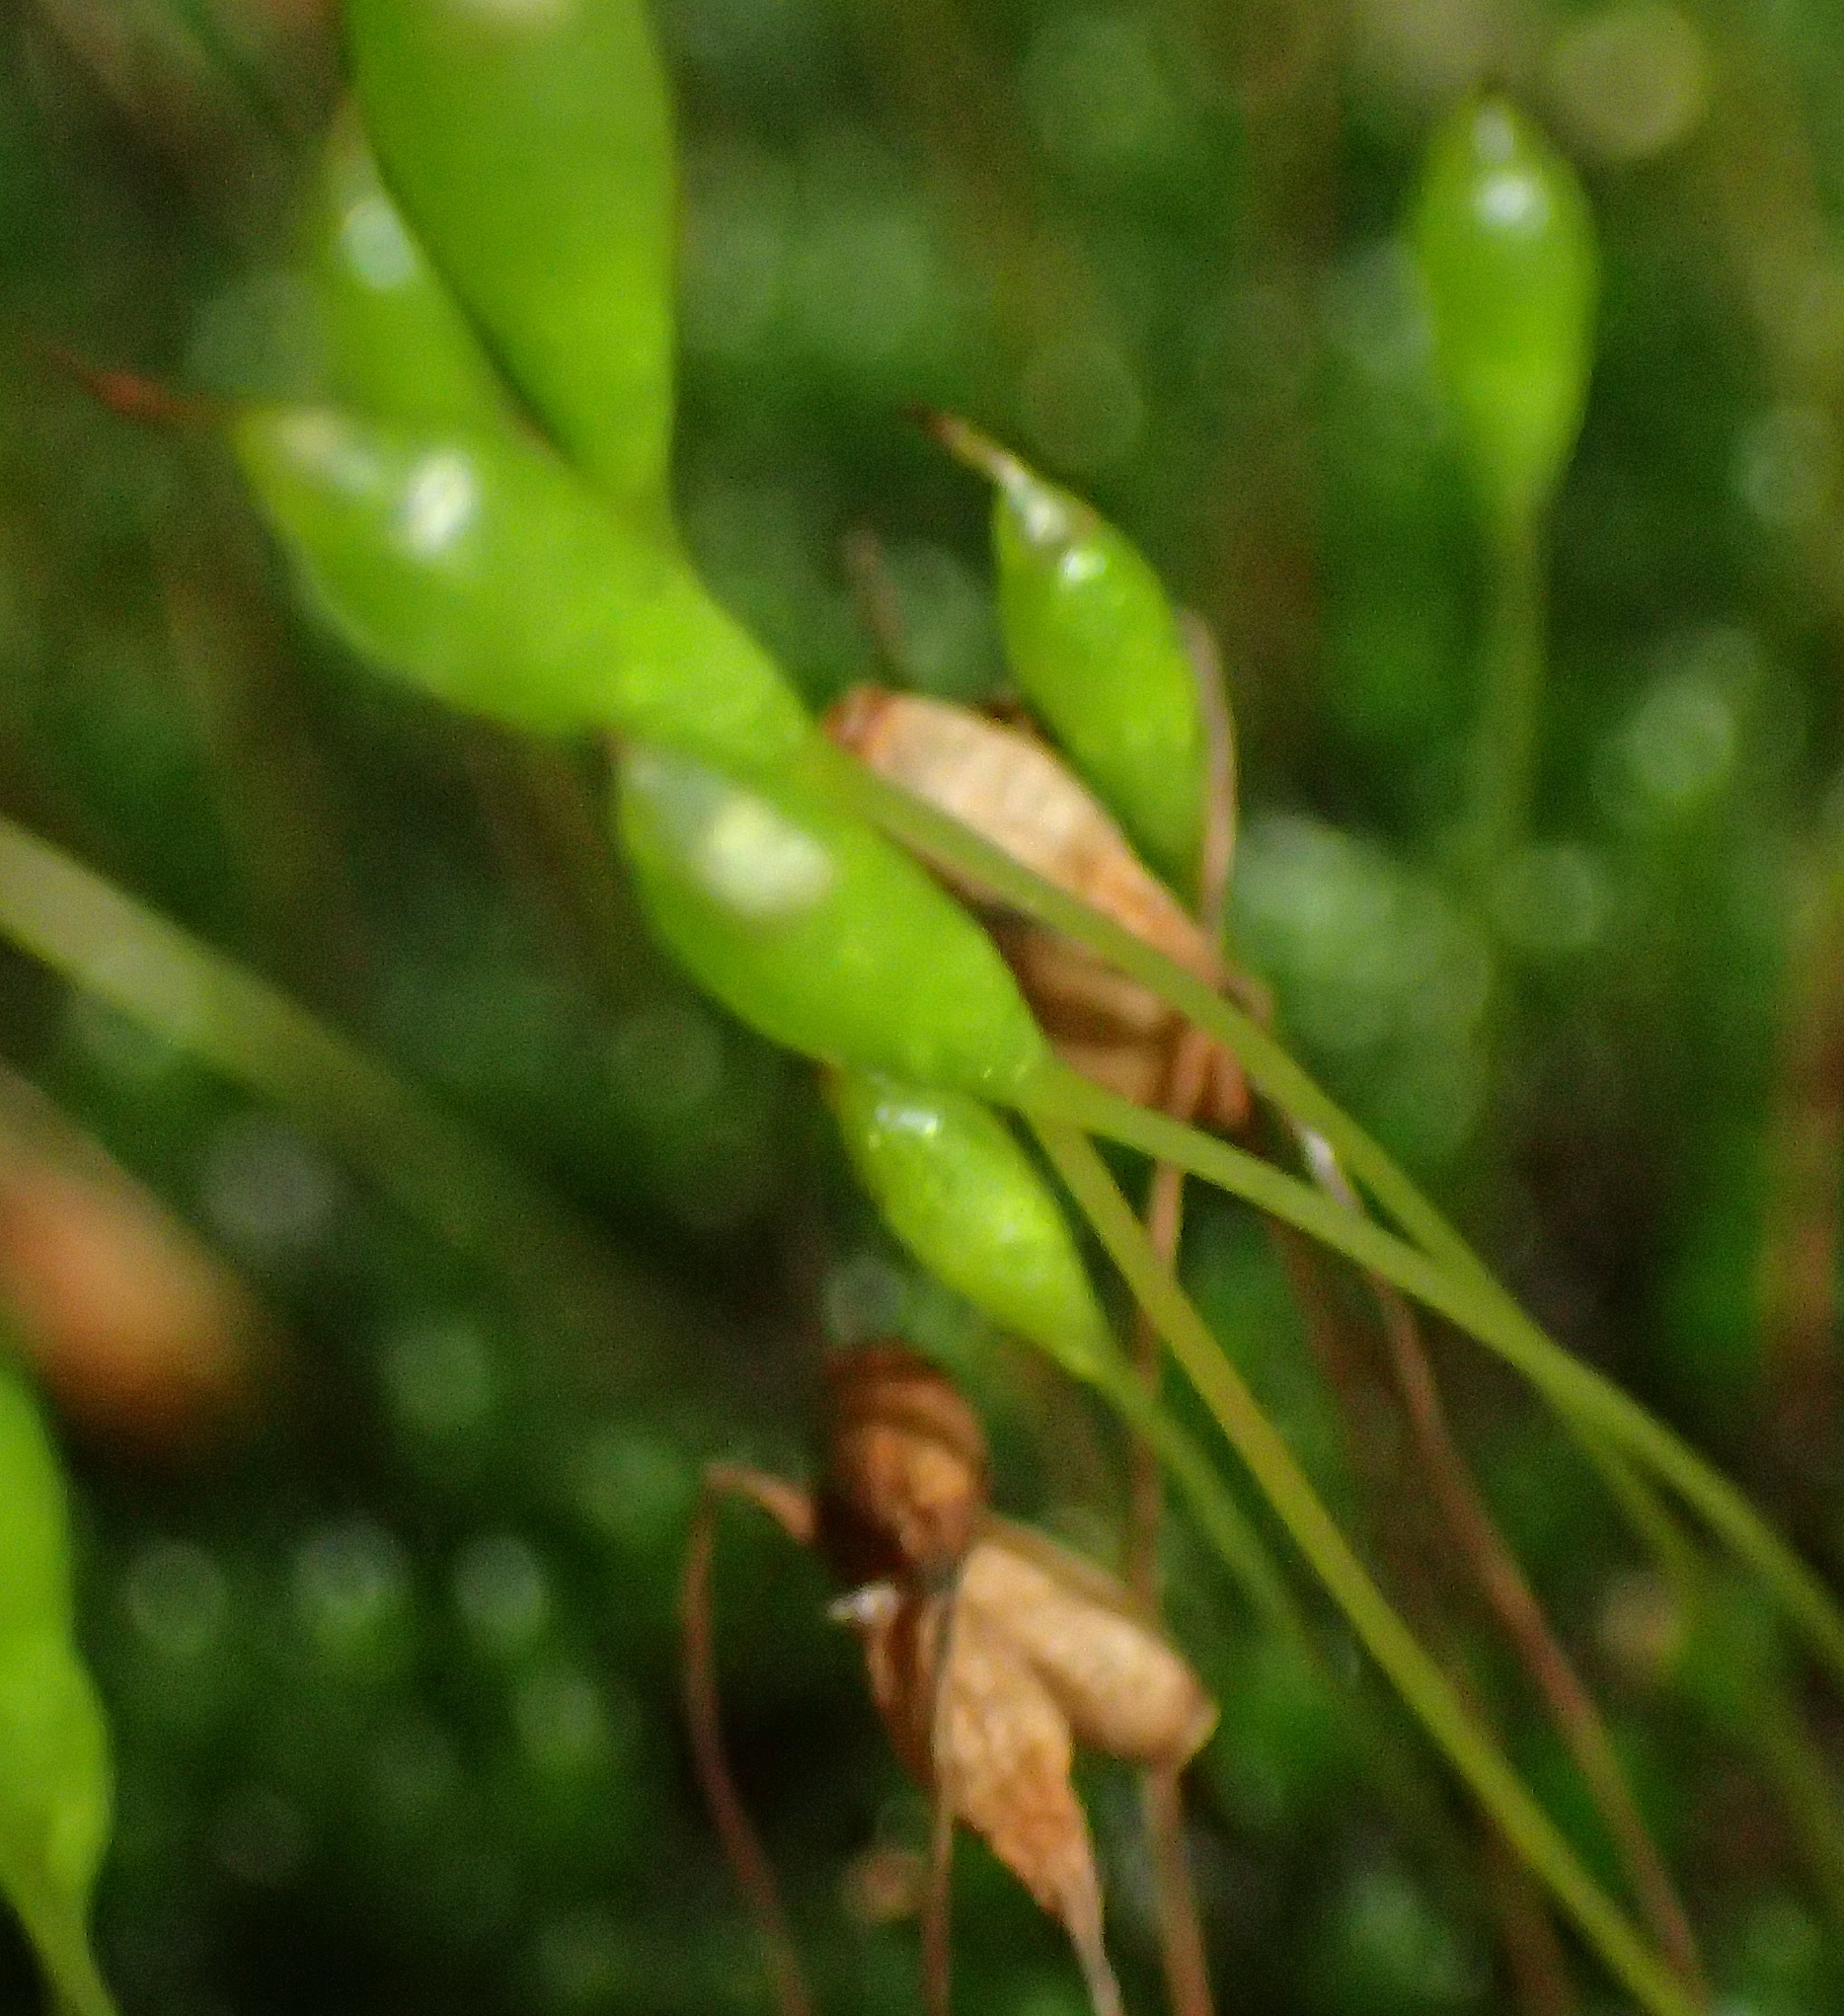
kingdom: Plantae
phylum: Bryophyta
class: Bryopsida
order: Bryales
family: Bryaceae
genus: Leptostomopsis
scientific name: Leptostomopsis pulchra
